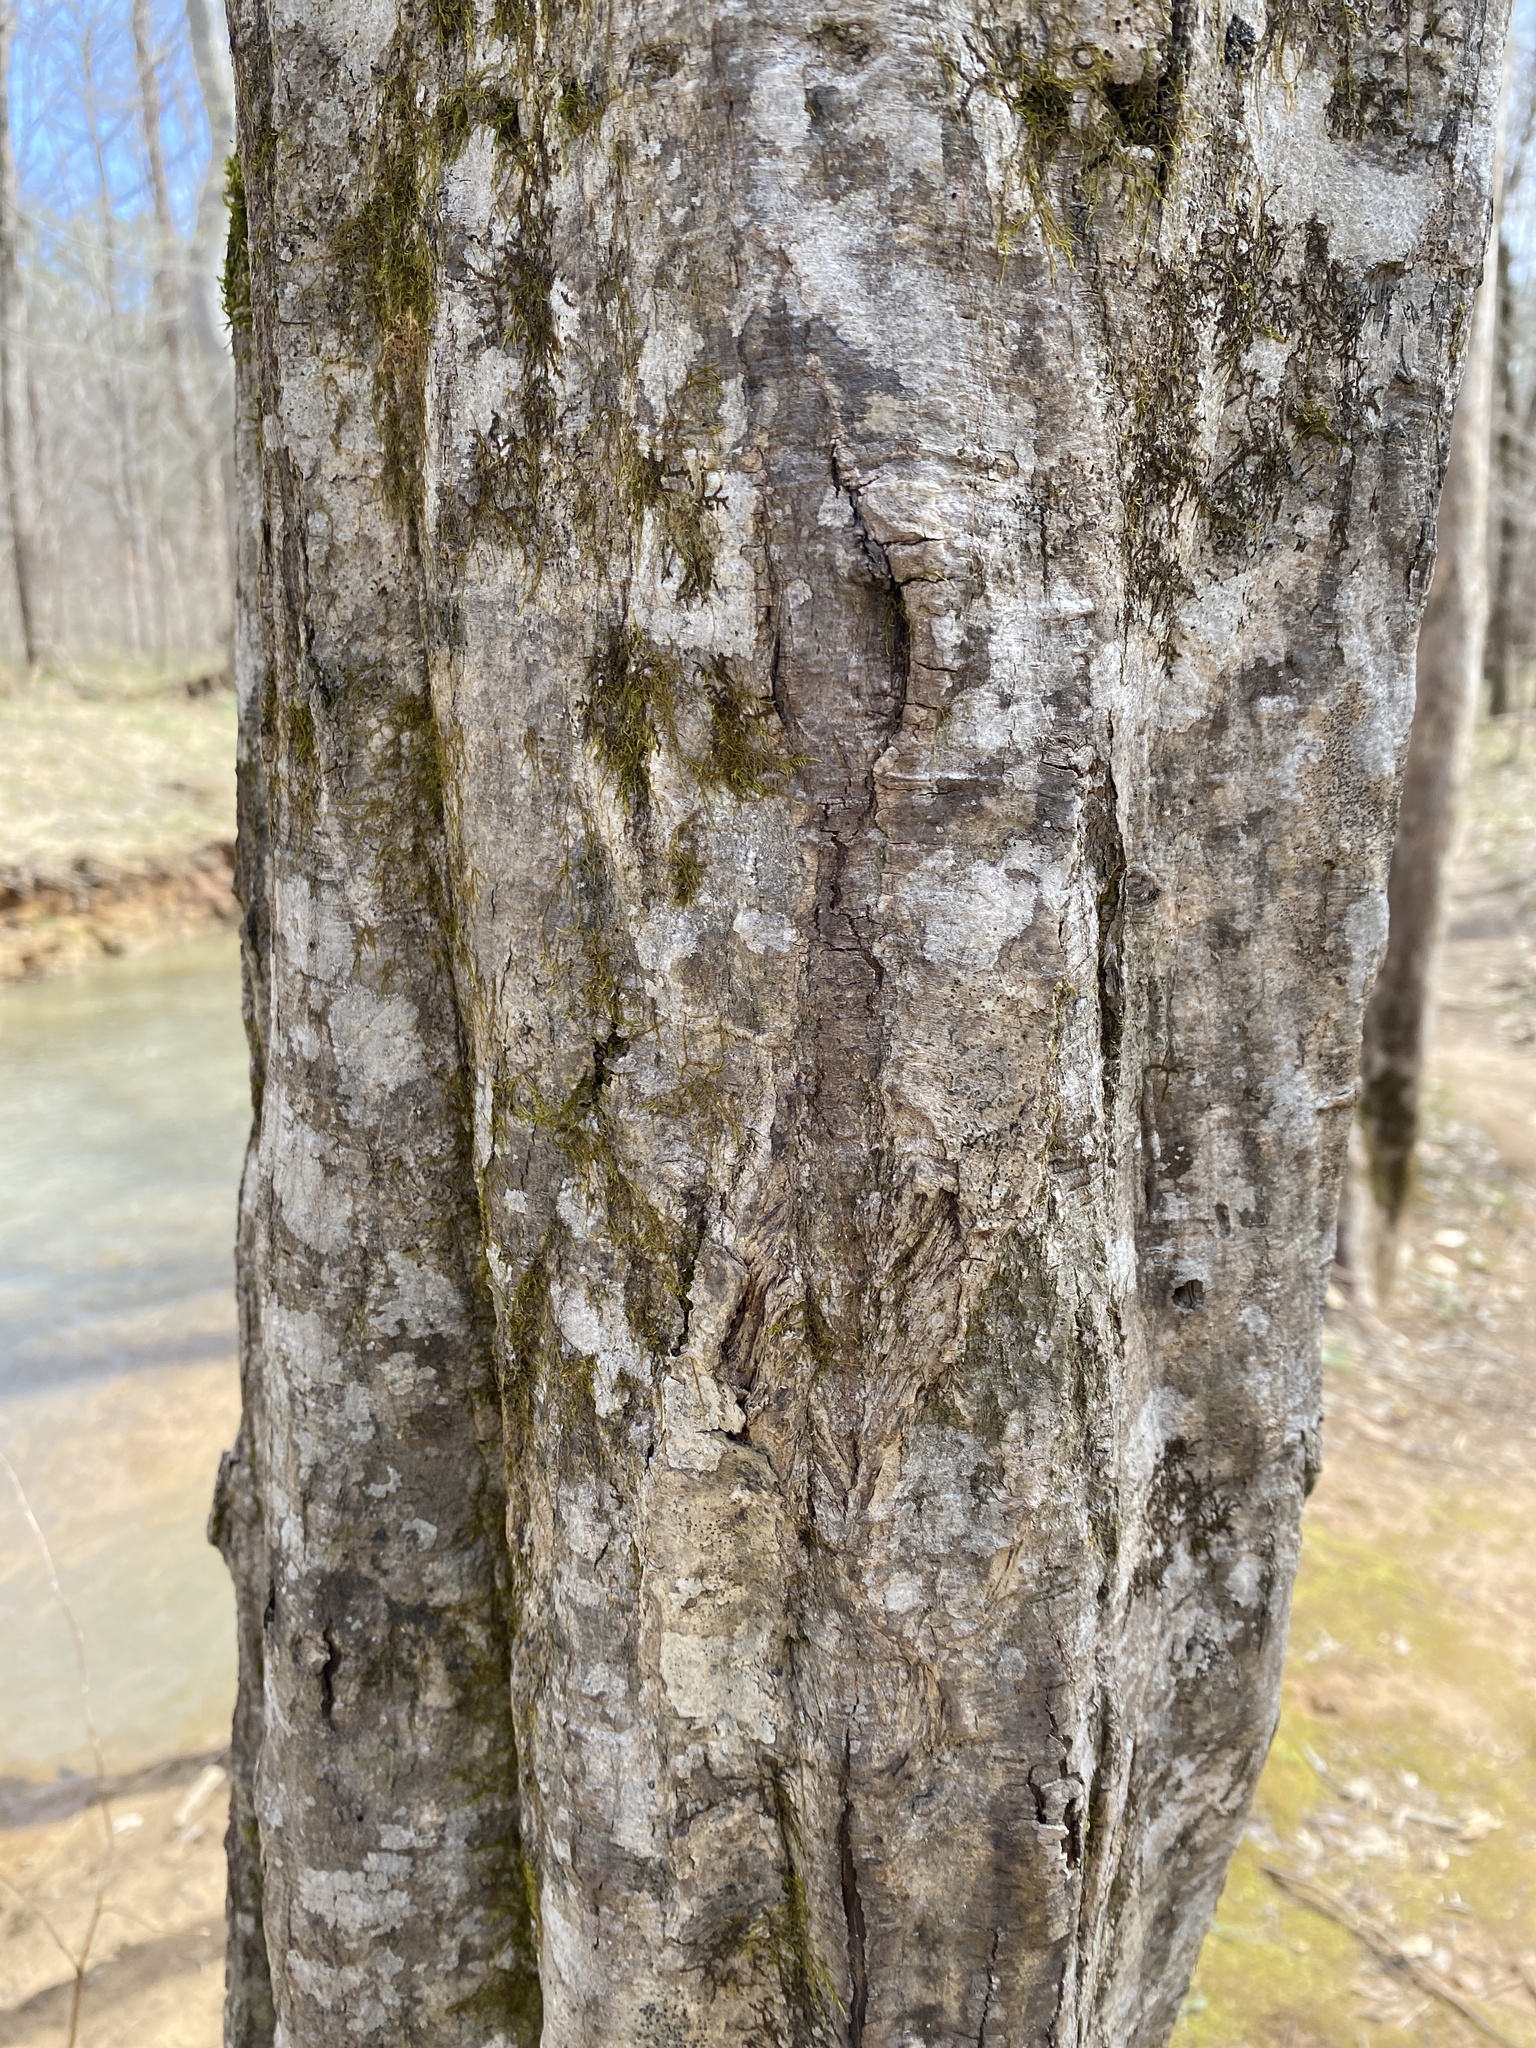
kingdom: Plantae
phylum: Tracheophyta
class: Magnoliopsida
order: Fagales
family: Betulaceae
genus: Carpinus
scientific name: Carpinus caroliniana
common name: American hornbeam
